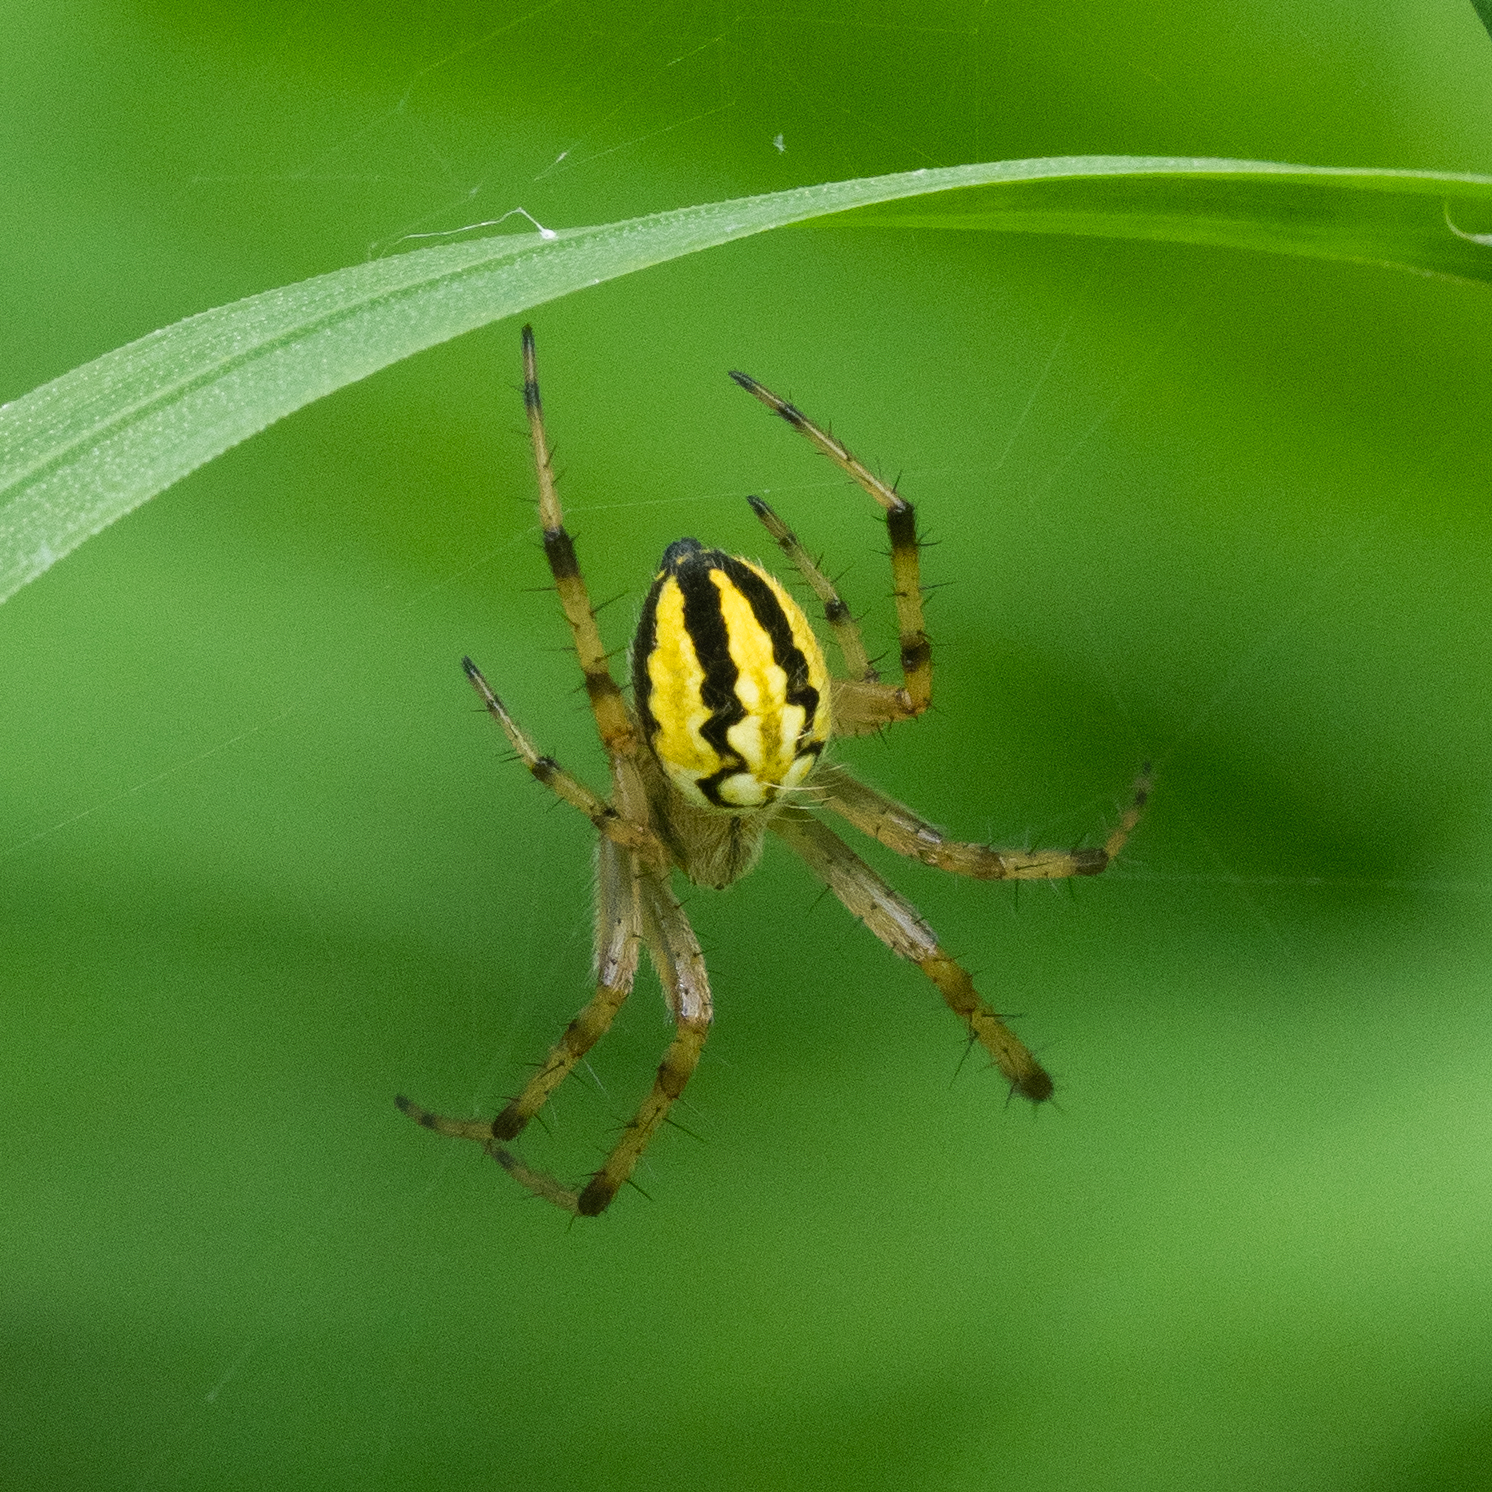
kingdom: Animalia
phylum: Arthropoda
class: Arachnida
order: Araneae
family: Araneidae
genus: Neoscona
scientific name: Neoscona adianta
